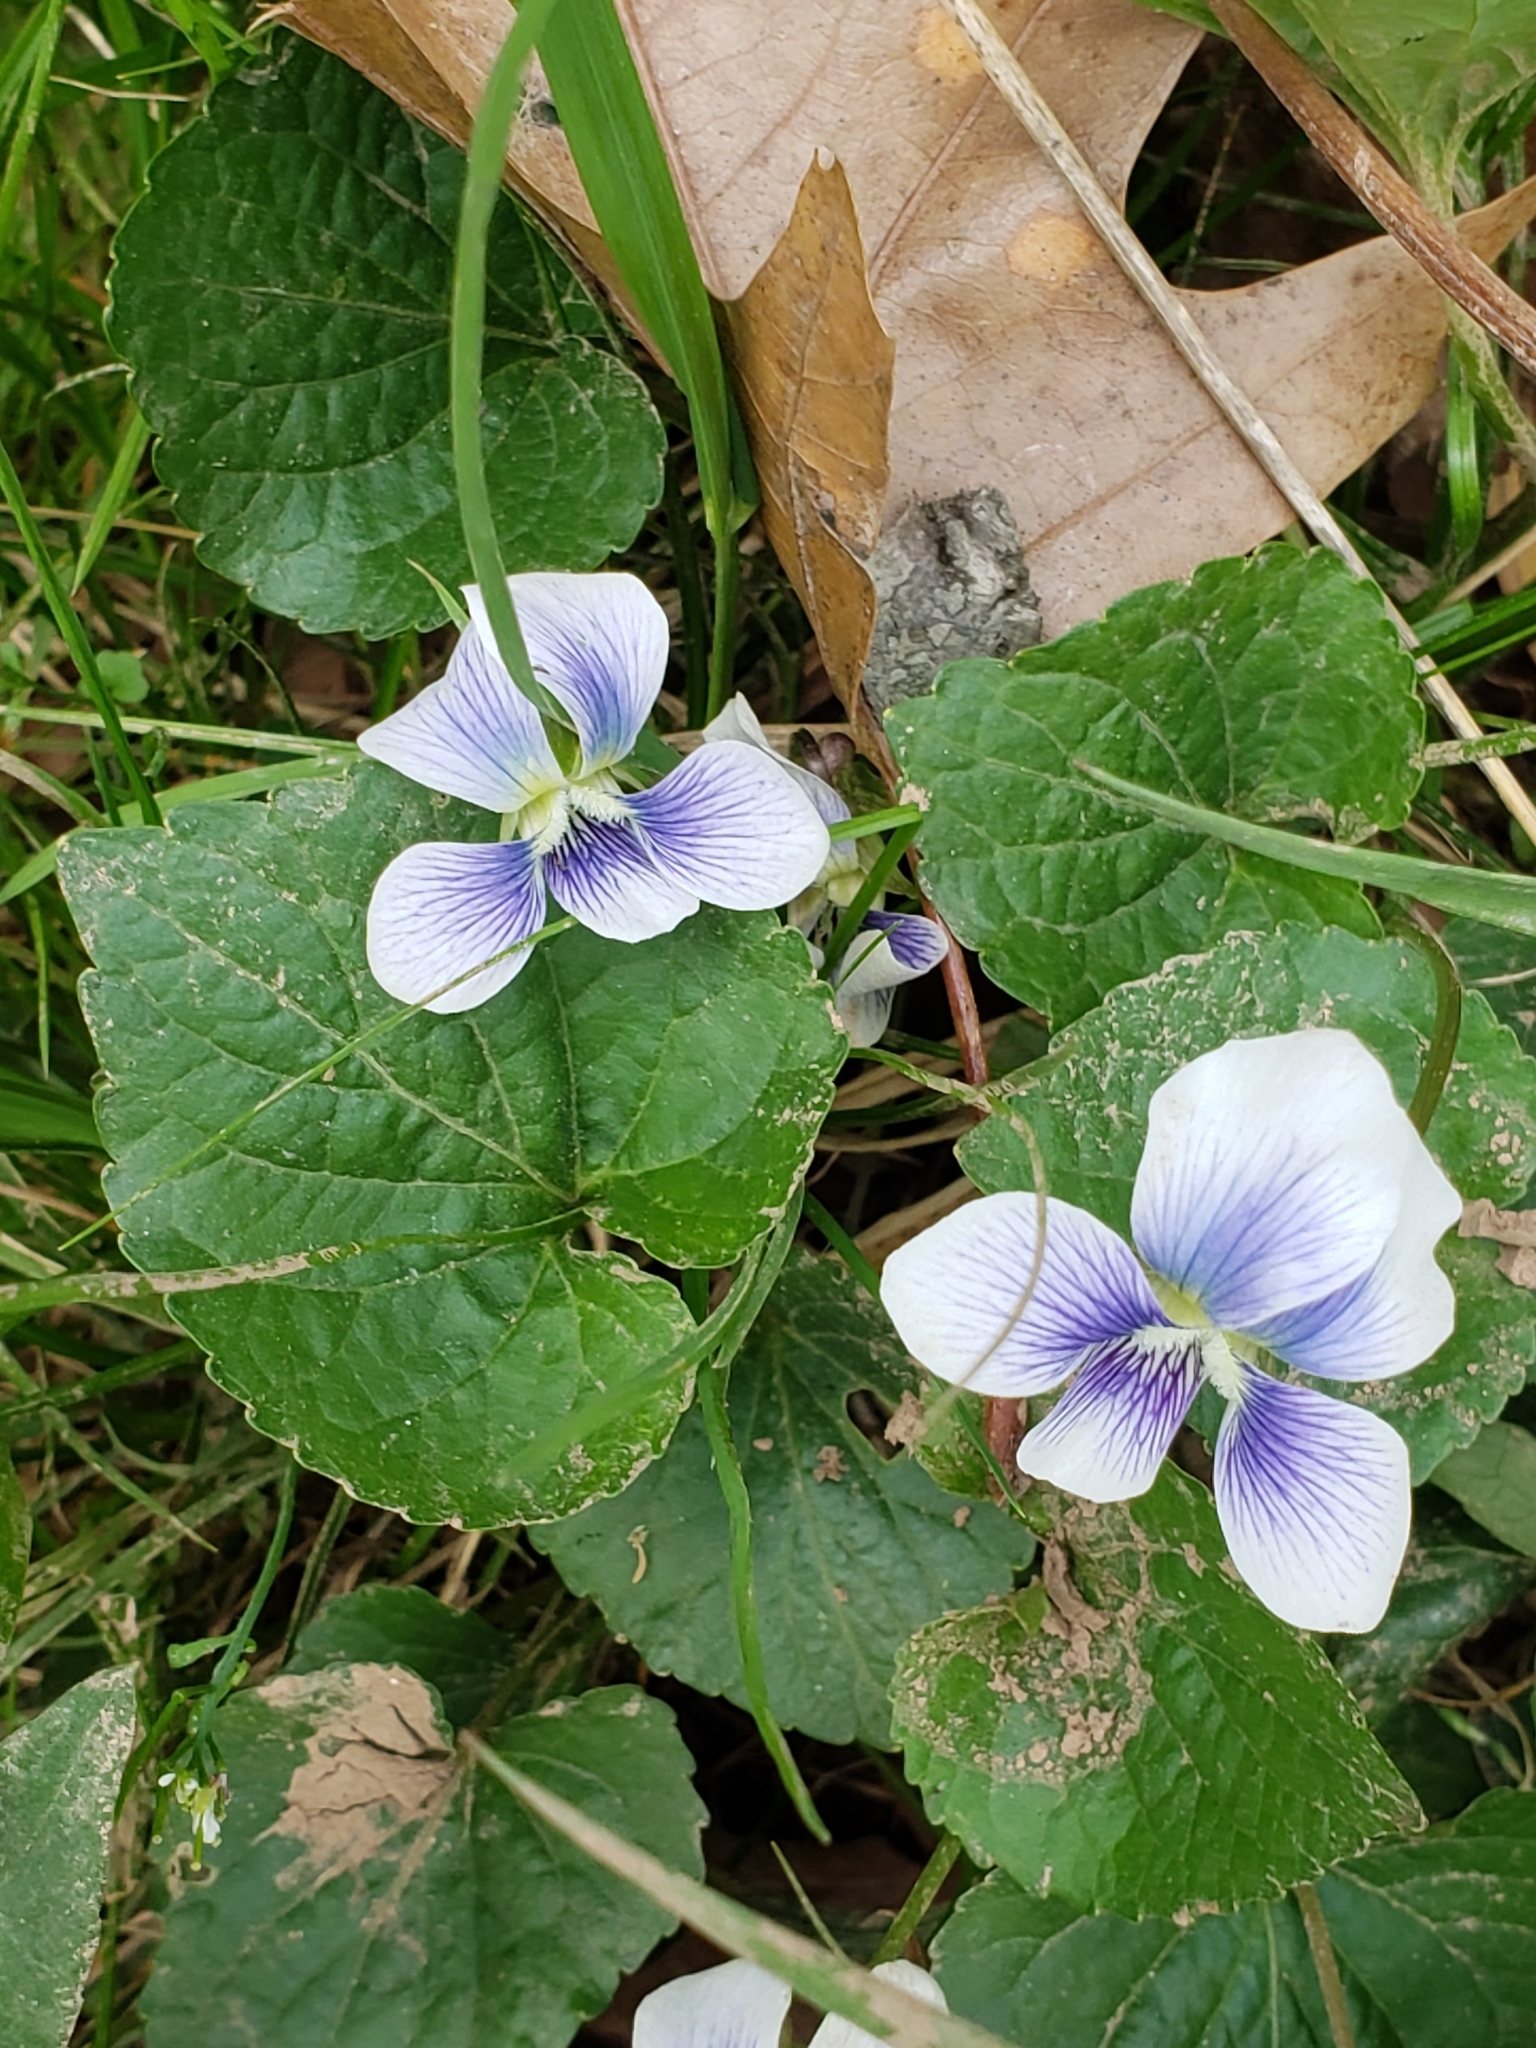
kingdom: Plantae
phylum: Tracheophyta
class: Magnoliopsida
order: Malpighiales
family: Violaceae
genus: Viola
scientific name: Viola sororia
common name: Dooryard violet
